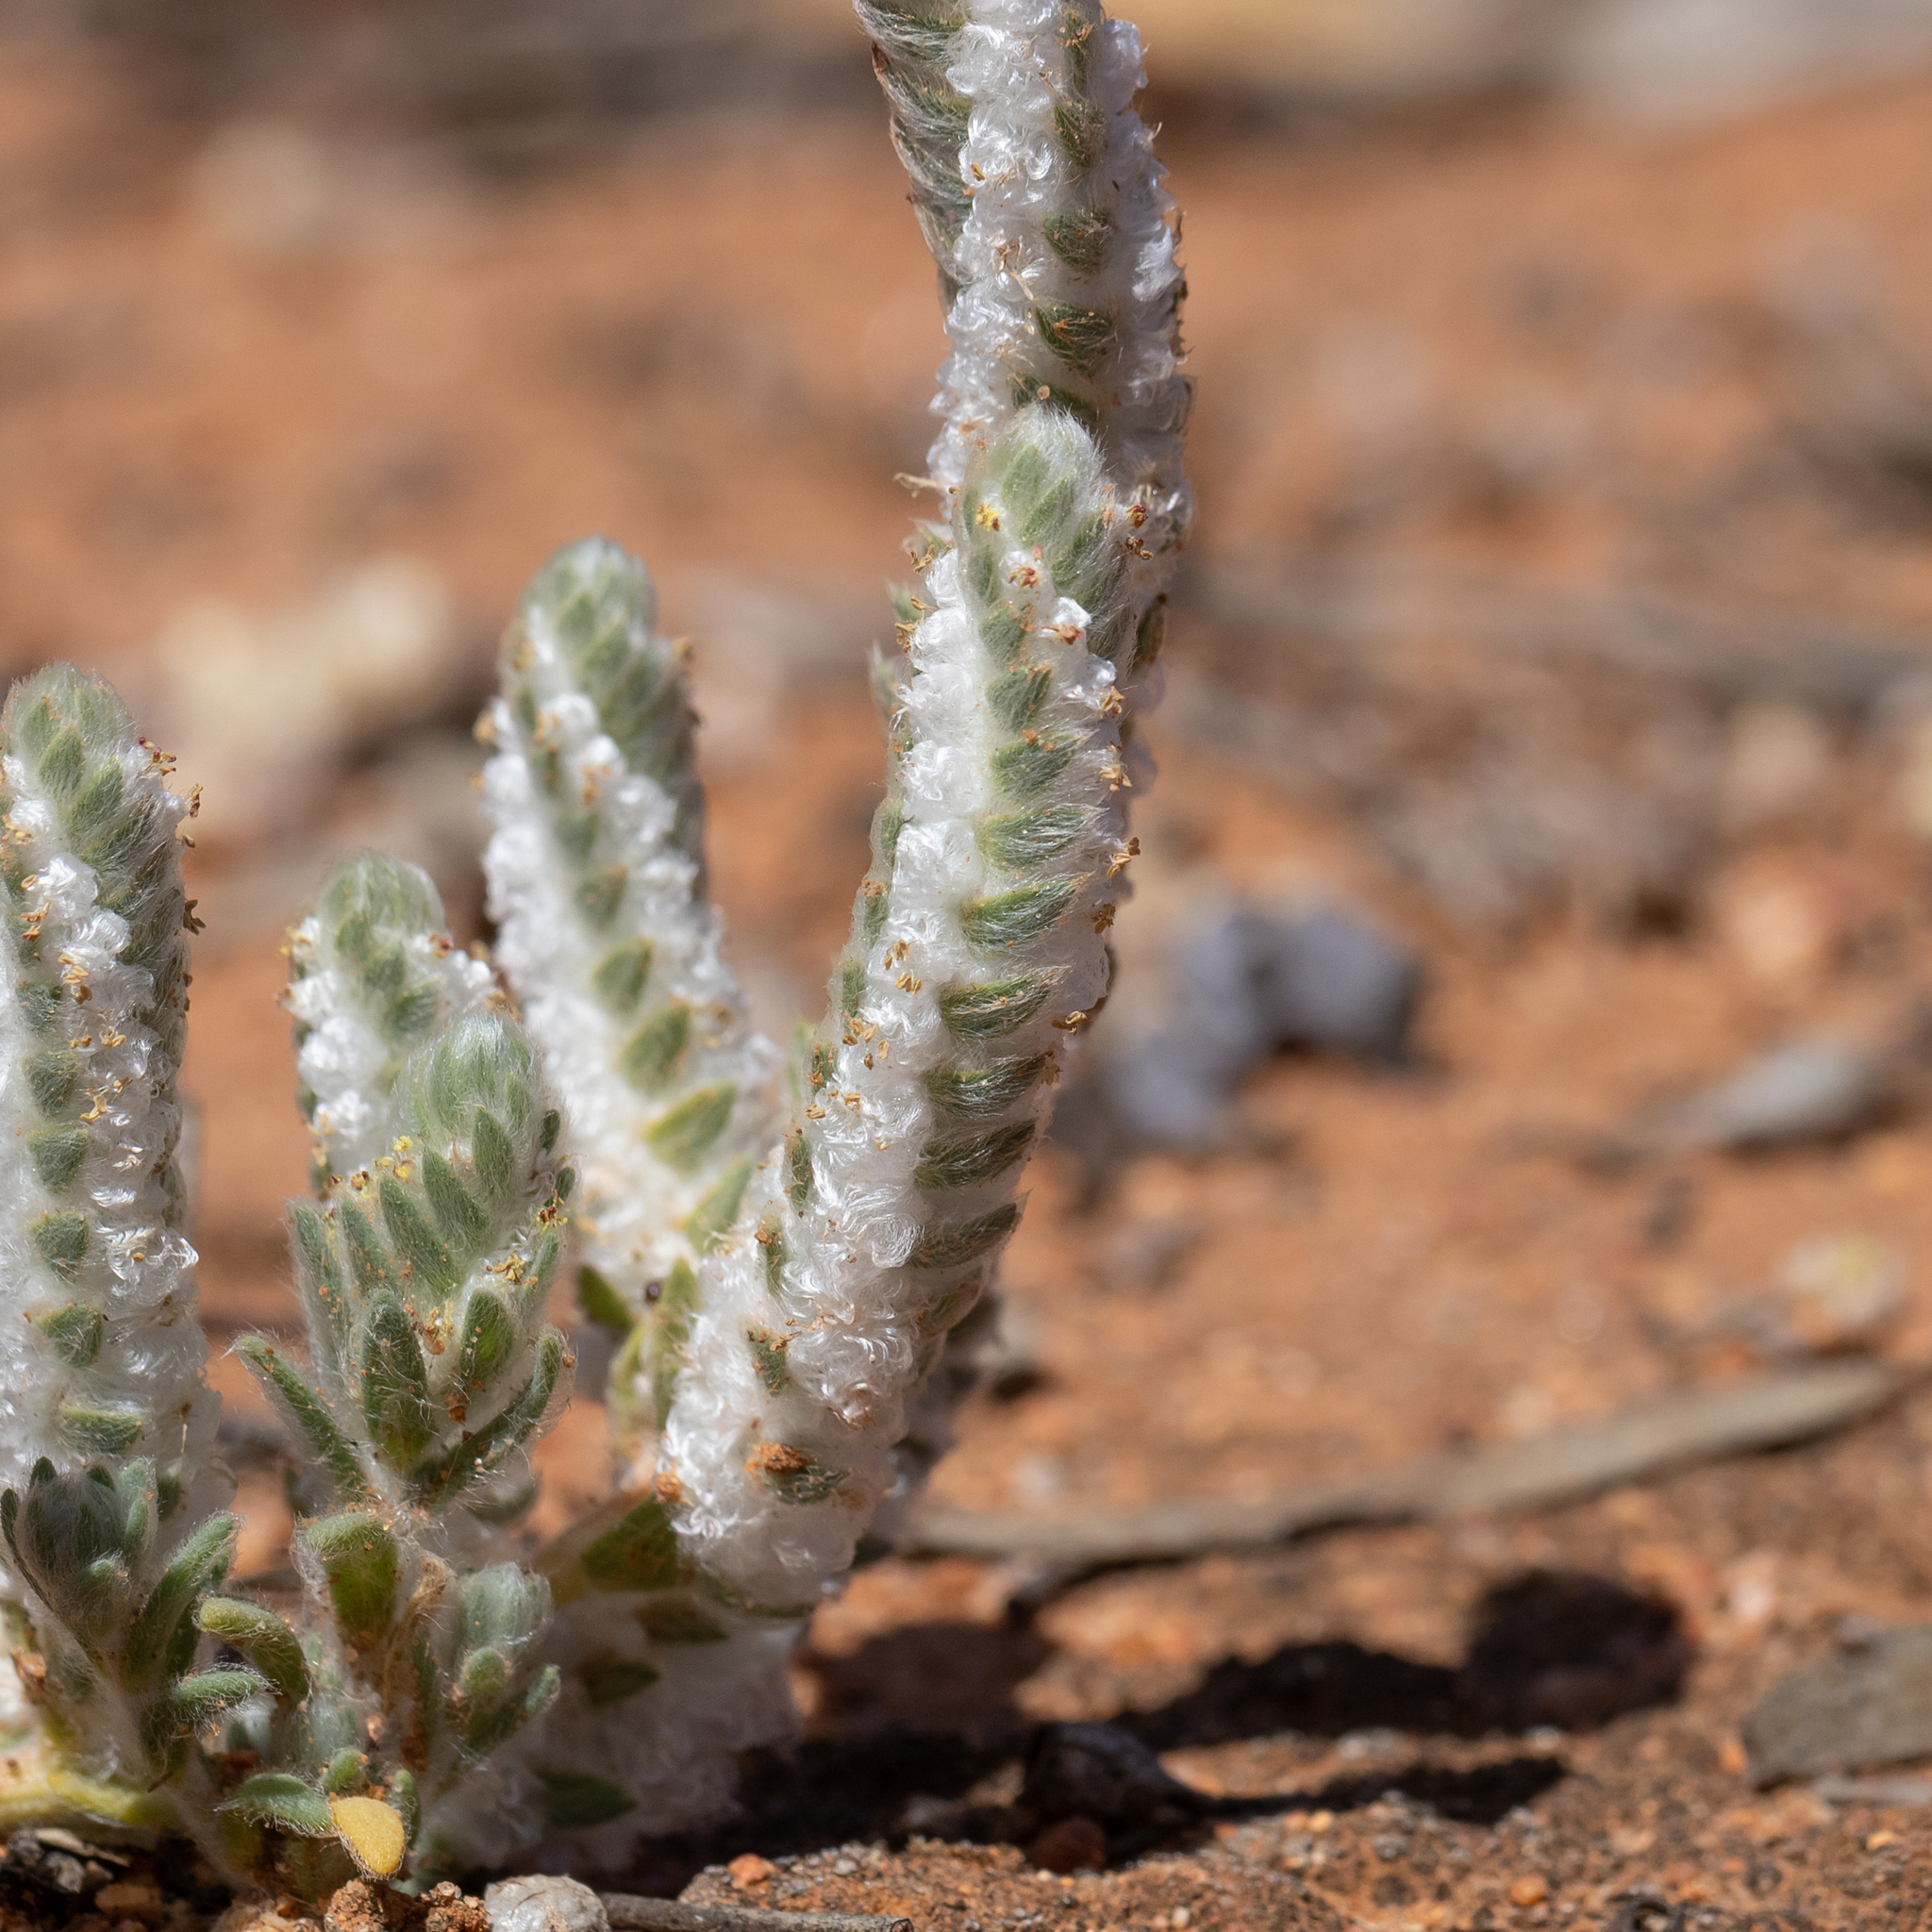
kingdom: Plantae
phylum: Tracheophyta
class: Magnoliopsida
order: Caryophyllales
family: Amaranthaceae
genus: Maireana
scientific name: Maireana carnosa
